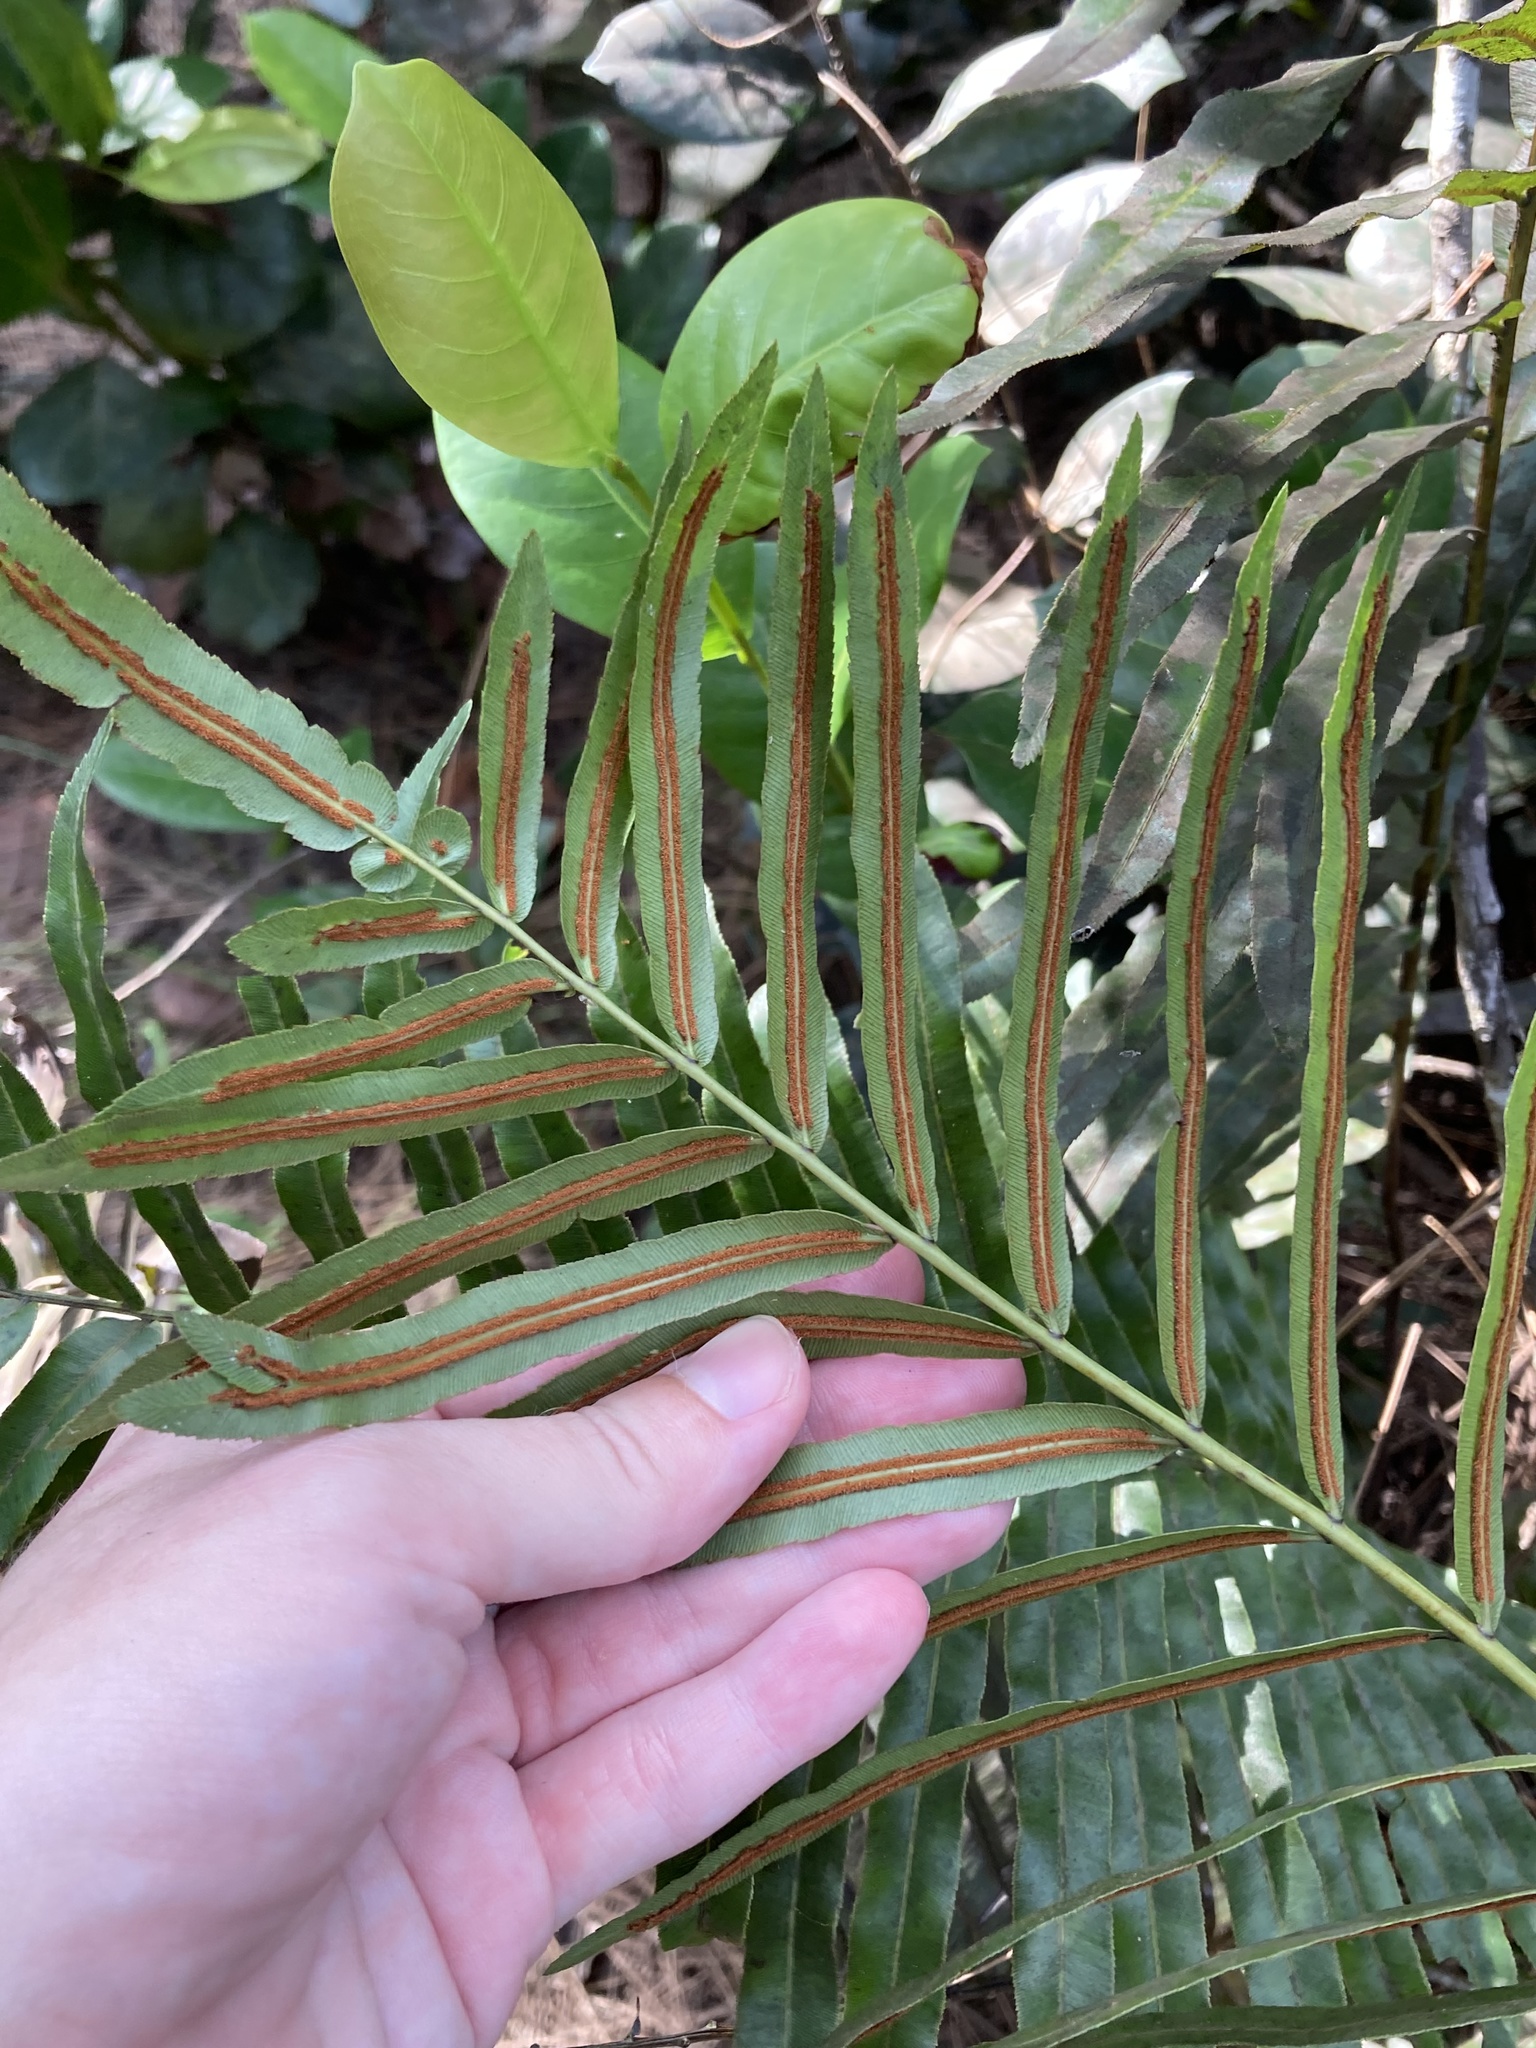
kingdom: Plantae
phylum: Tracheophyta
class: Polypodiopsida
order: Polypodiales
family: Blechnaceae
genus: Telmatoblechnum
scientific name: Telmatoblechnum serrulatum
